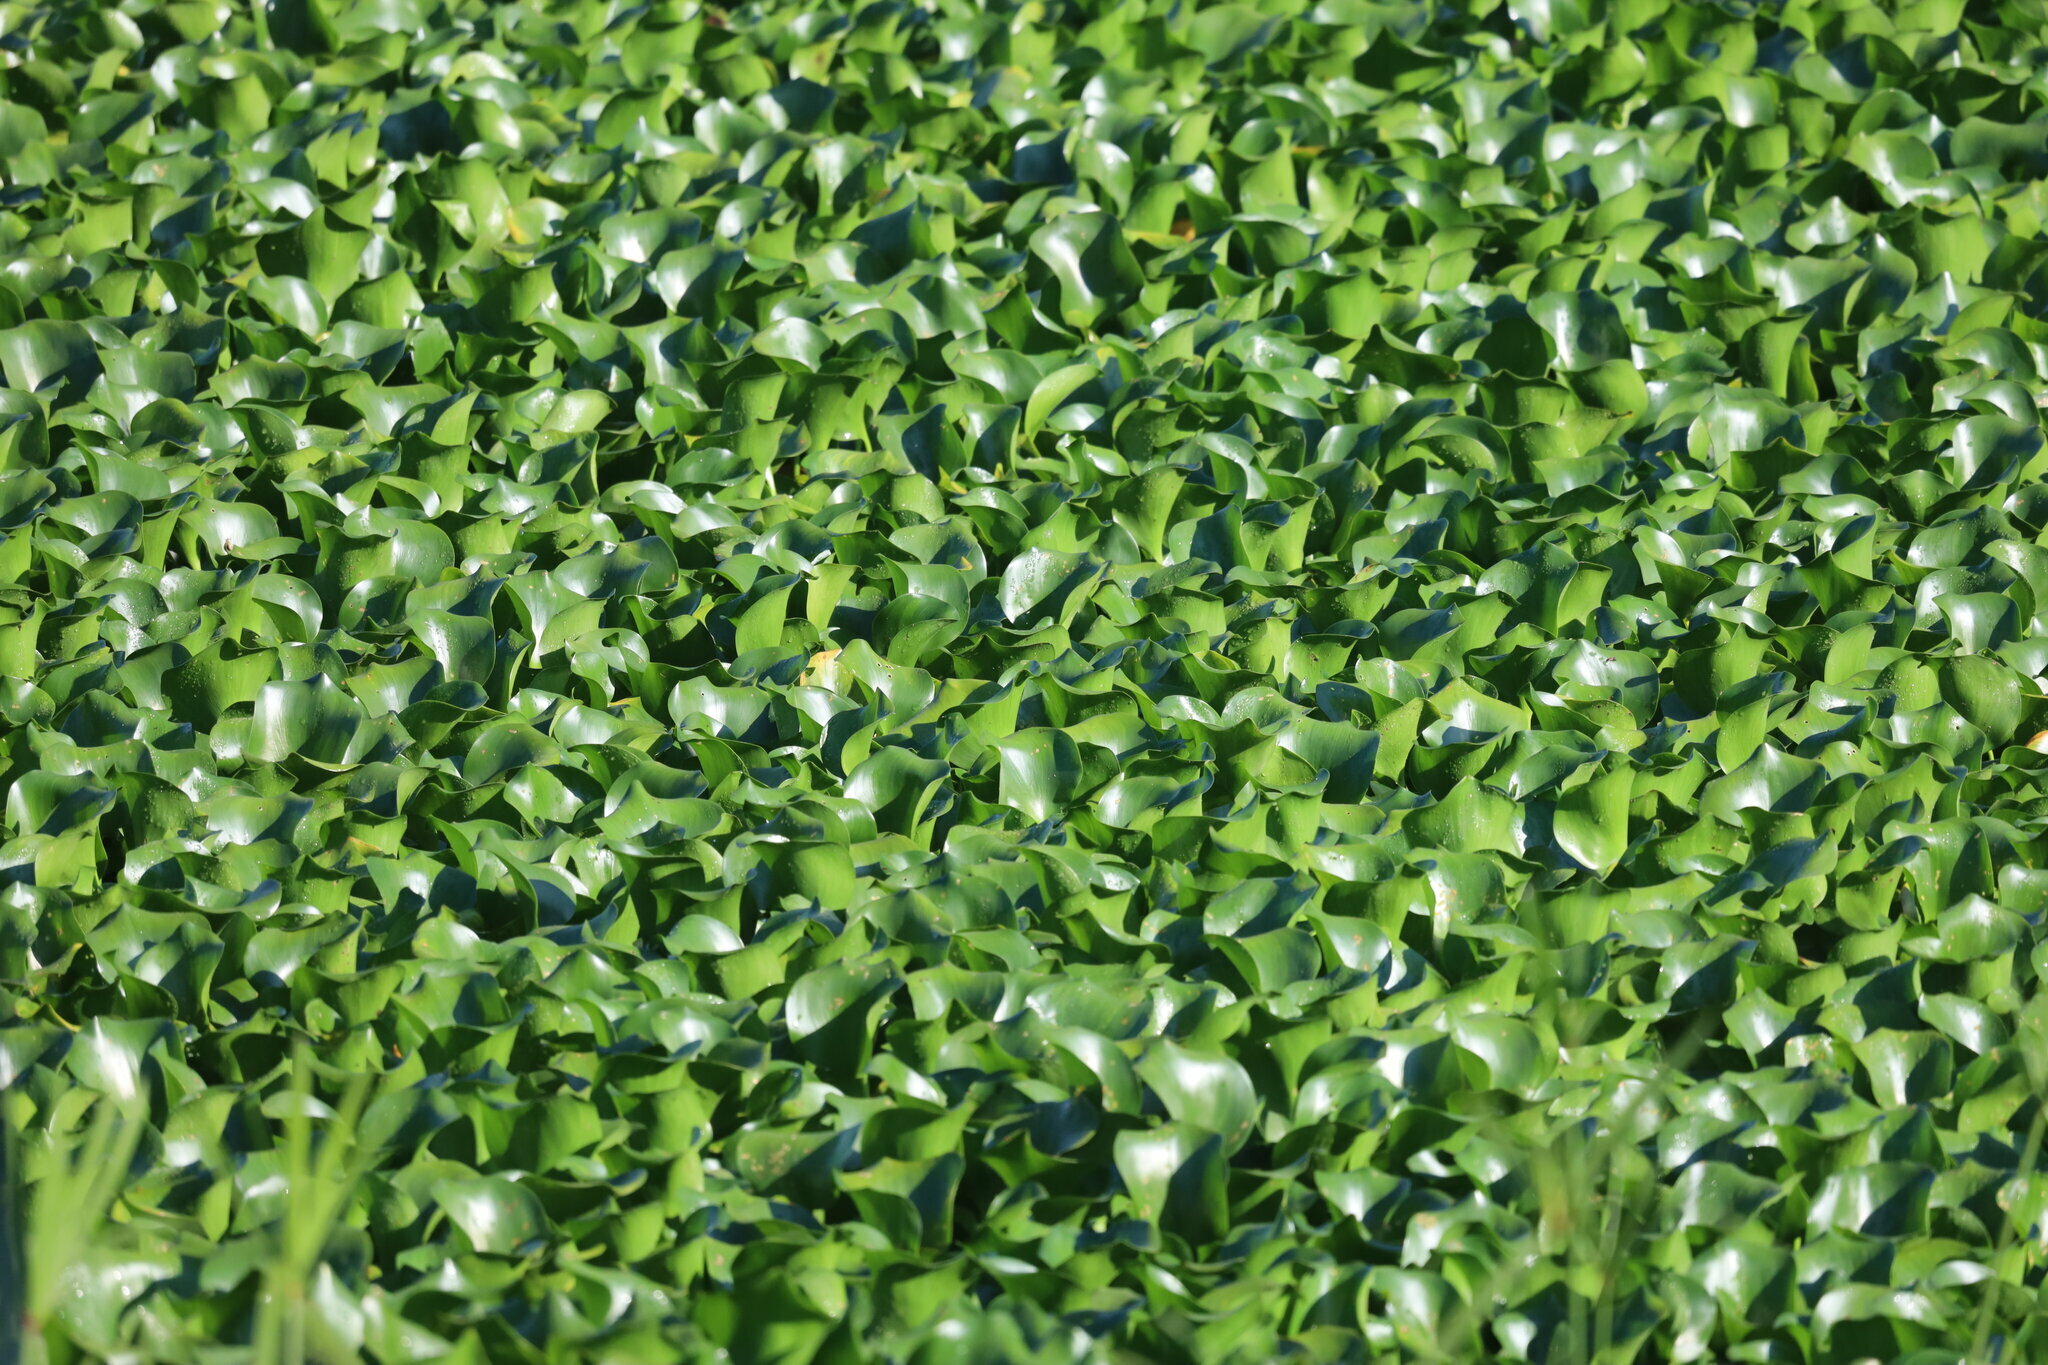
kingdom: Plantae
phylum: Tracheophyta
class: Liliopsida
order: Commelinales
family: Pontederiaceae
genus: Pontederia
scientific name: Pontederia crassipes
